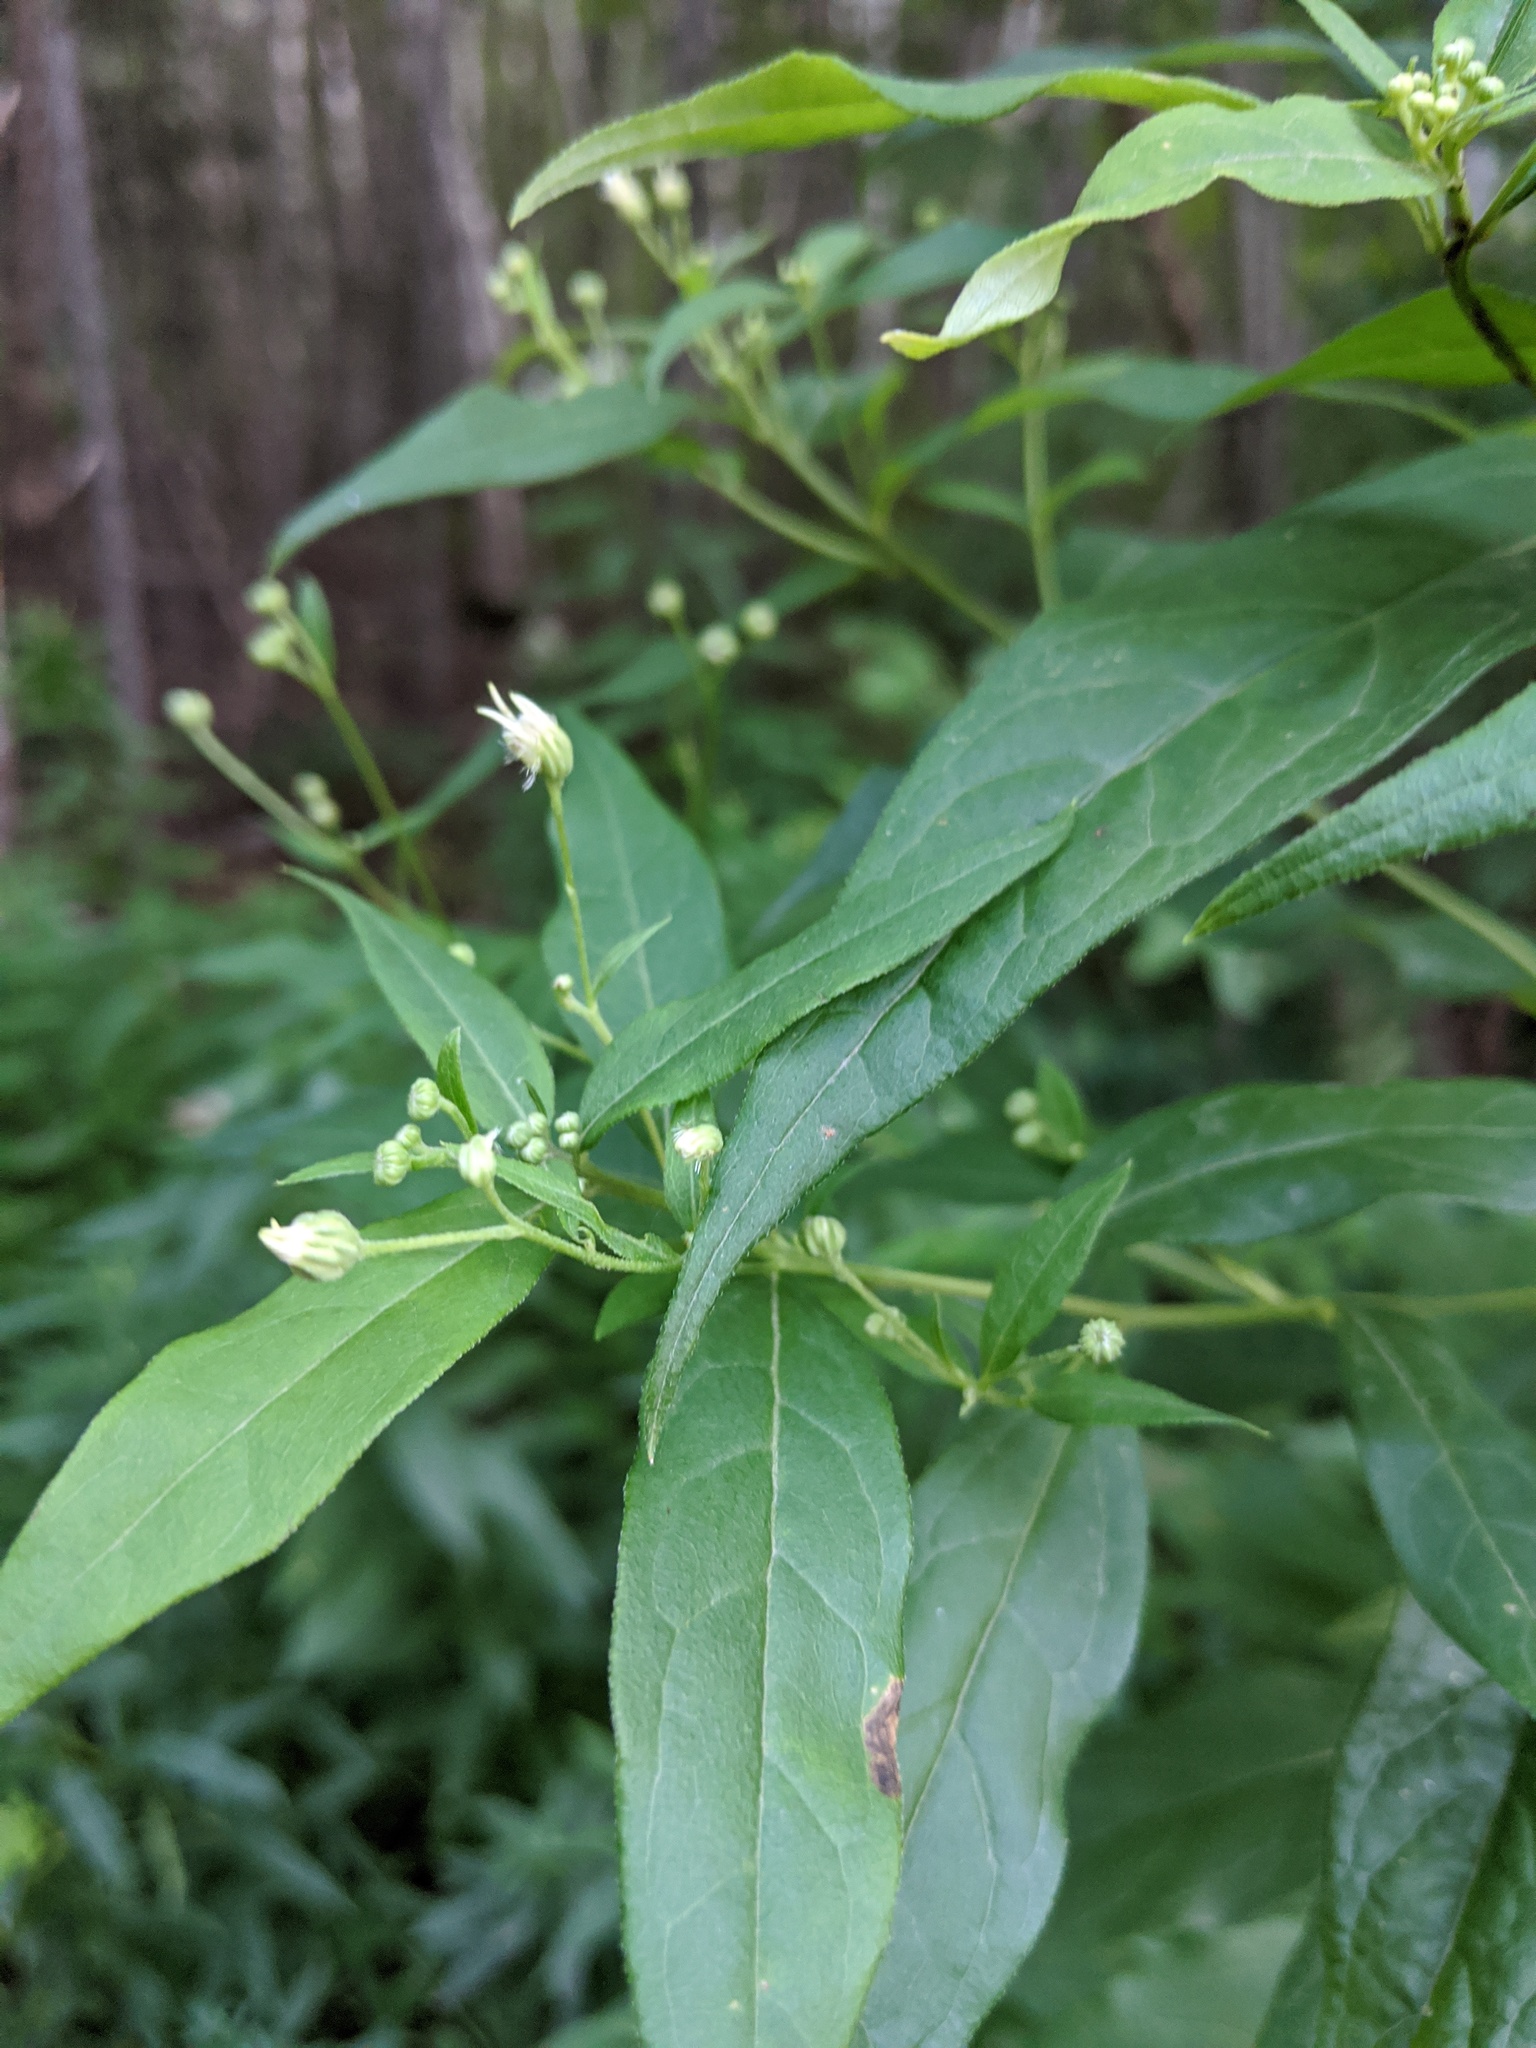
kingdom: Plantae
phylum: Tracheophyta
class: Magnoliopsida
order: Asterales
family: Asteraceae
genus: Doellingeria
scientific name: Doellingeria umbellata
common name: Flat-top white aster
